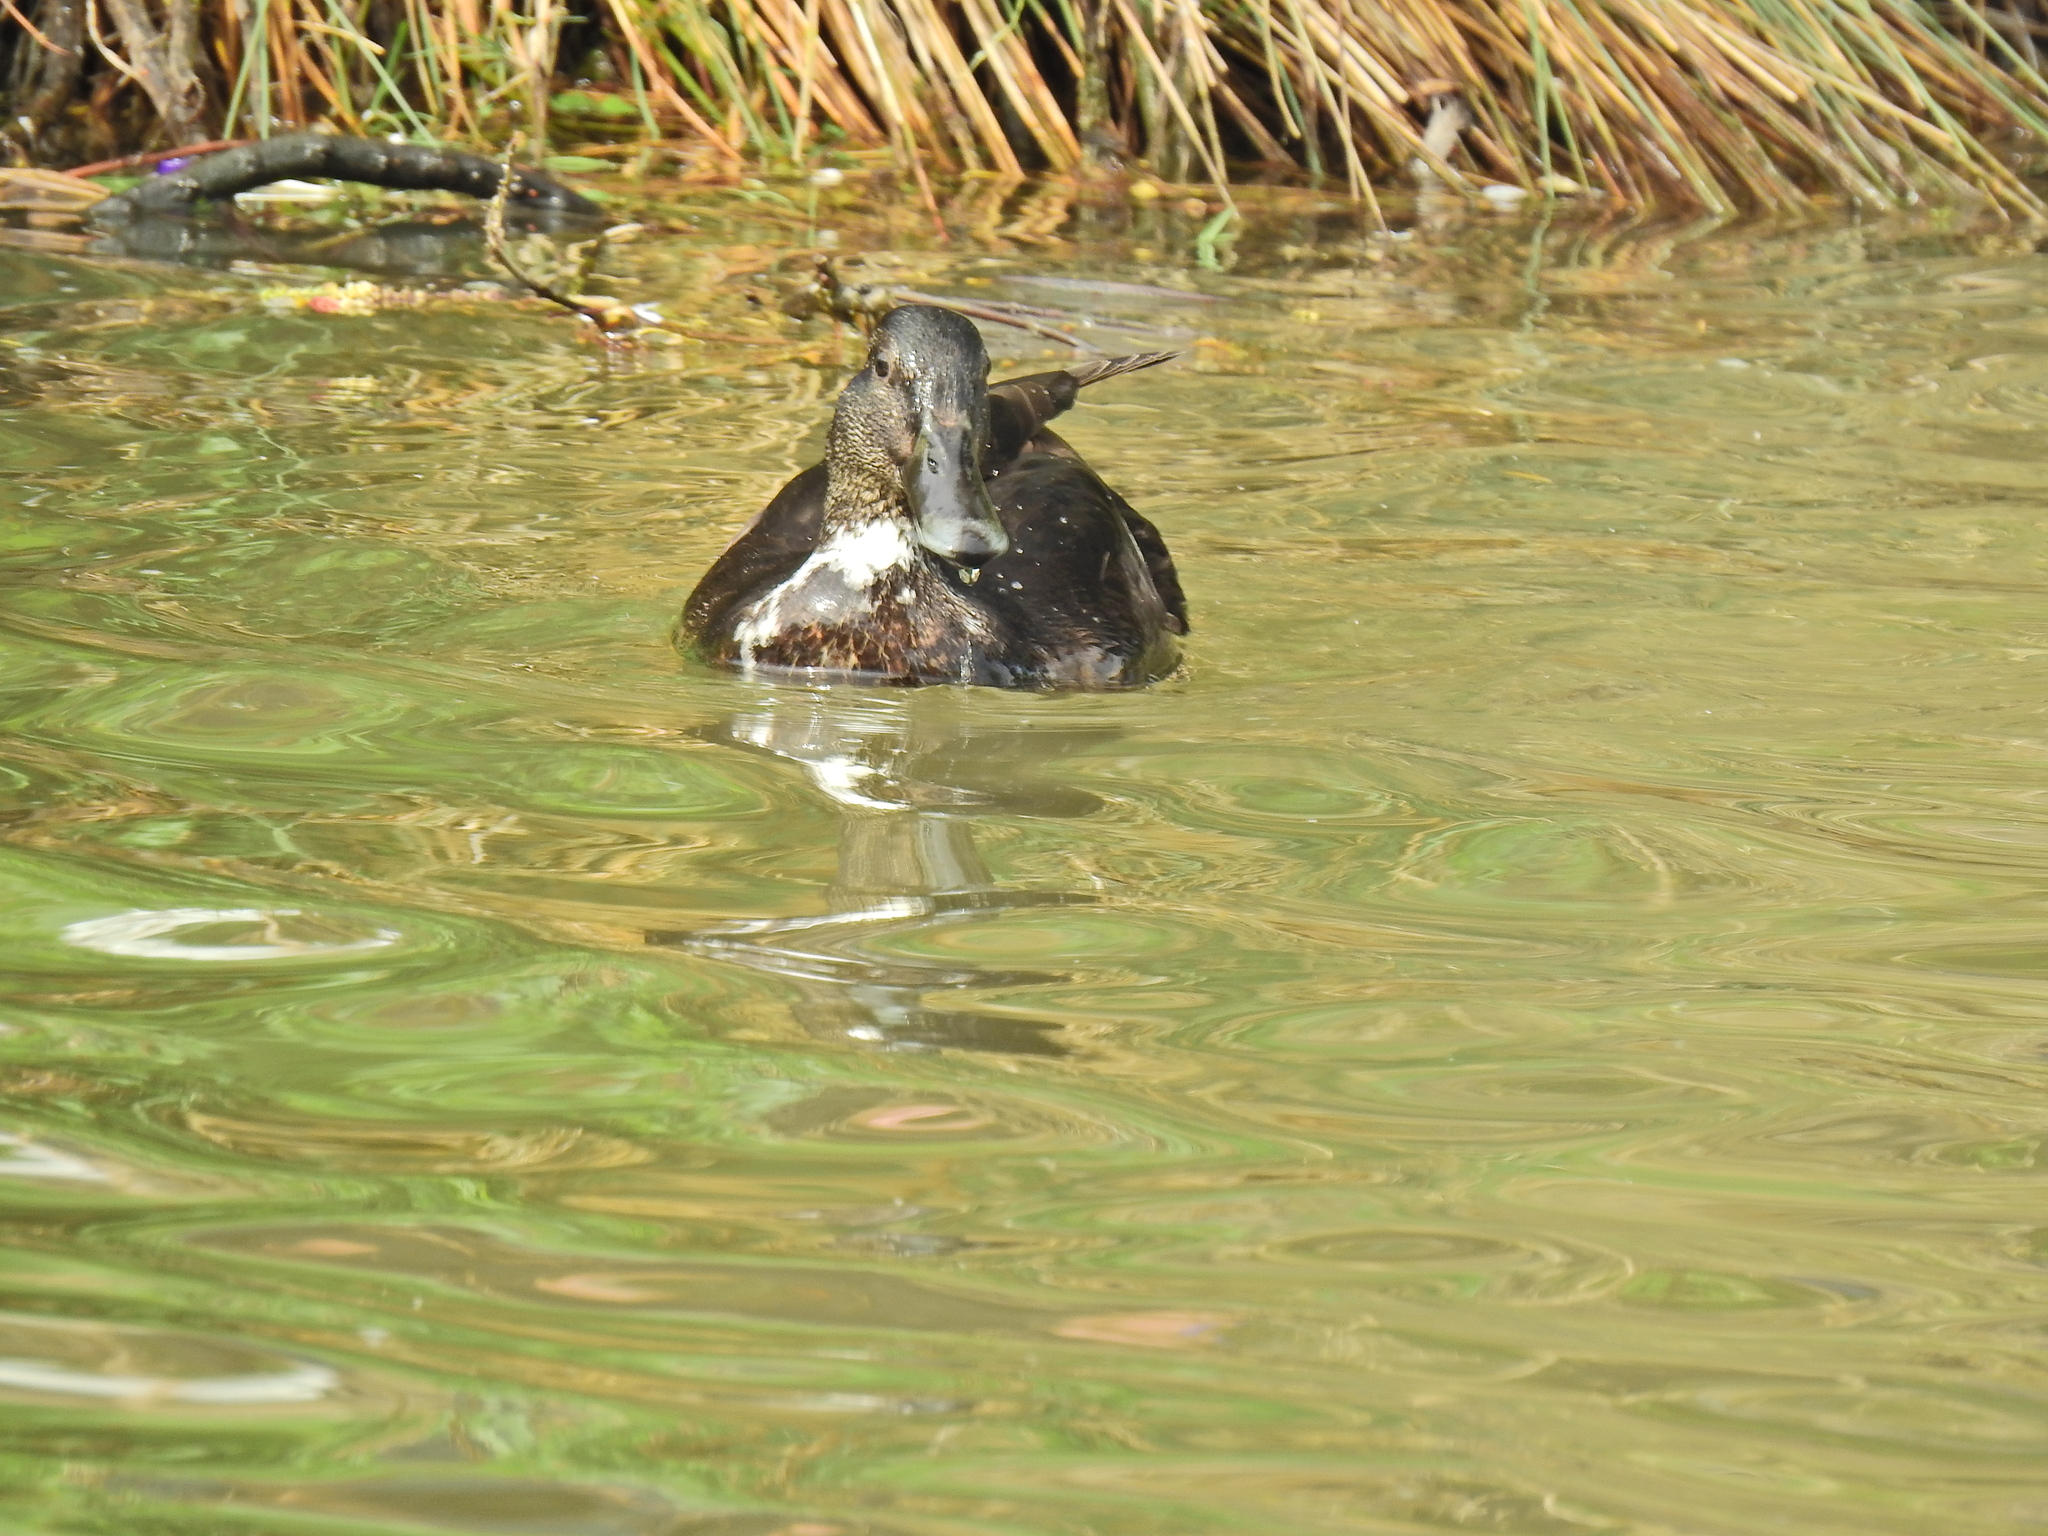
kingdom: Animalia
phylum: Chordata
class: Aves
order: Anseriformes
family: Anatidae
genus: Anas
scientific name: Anas platyrhynchos
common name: Mallard
